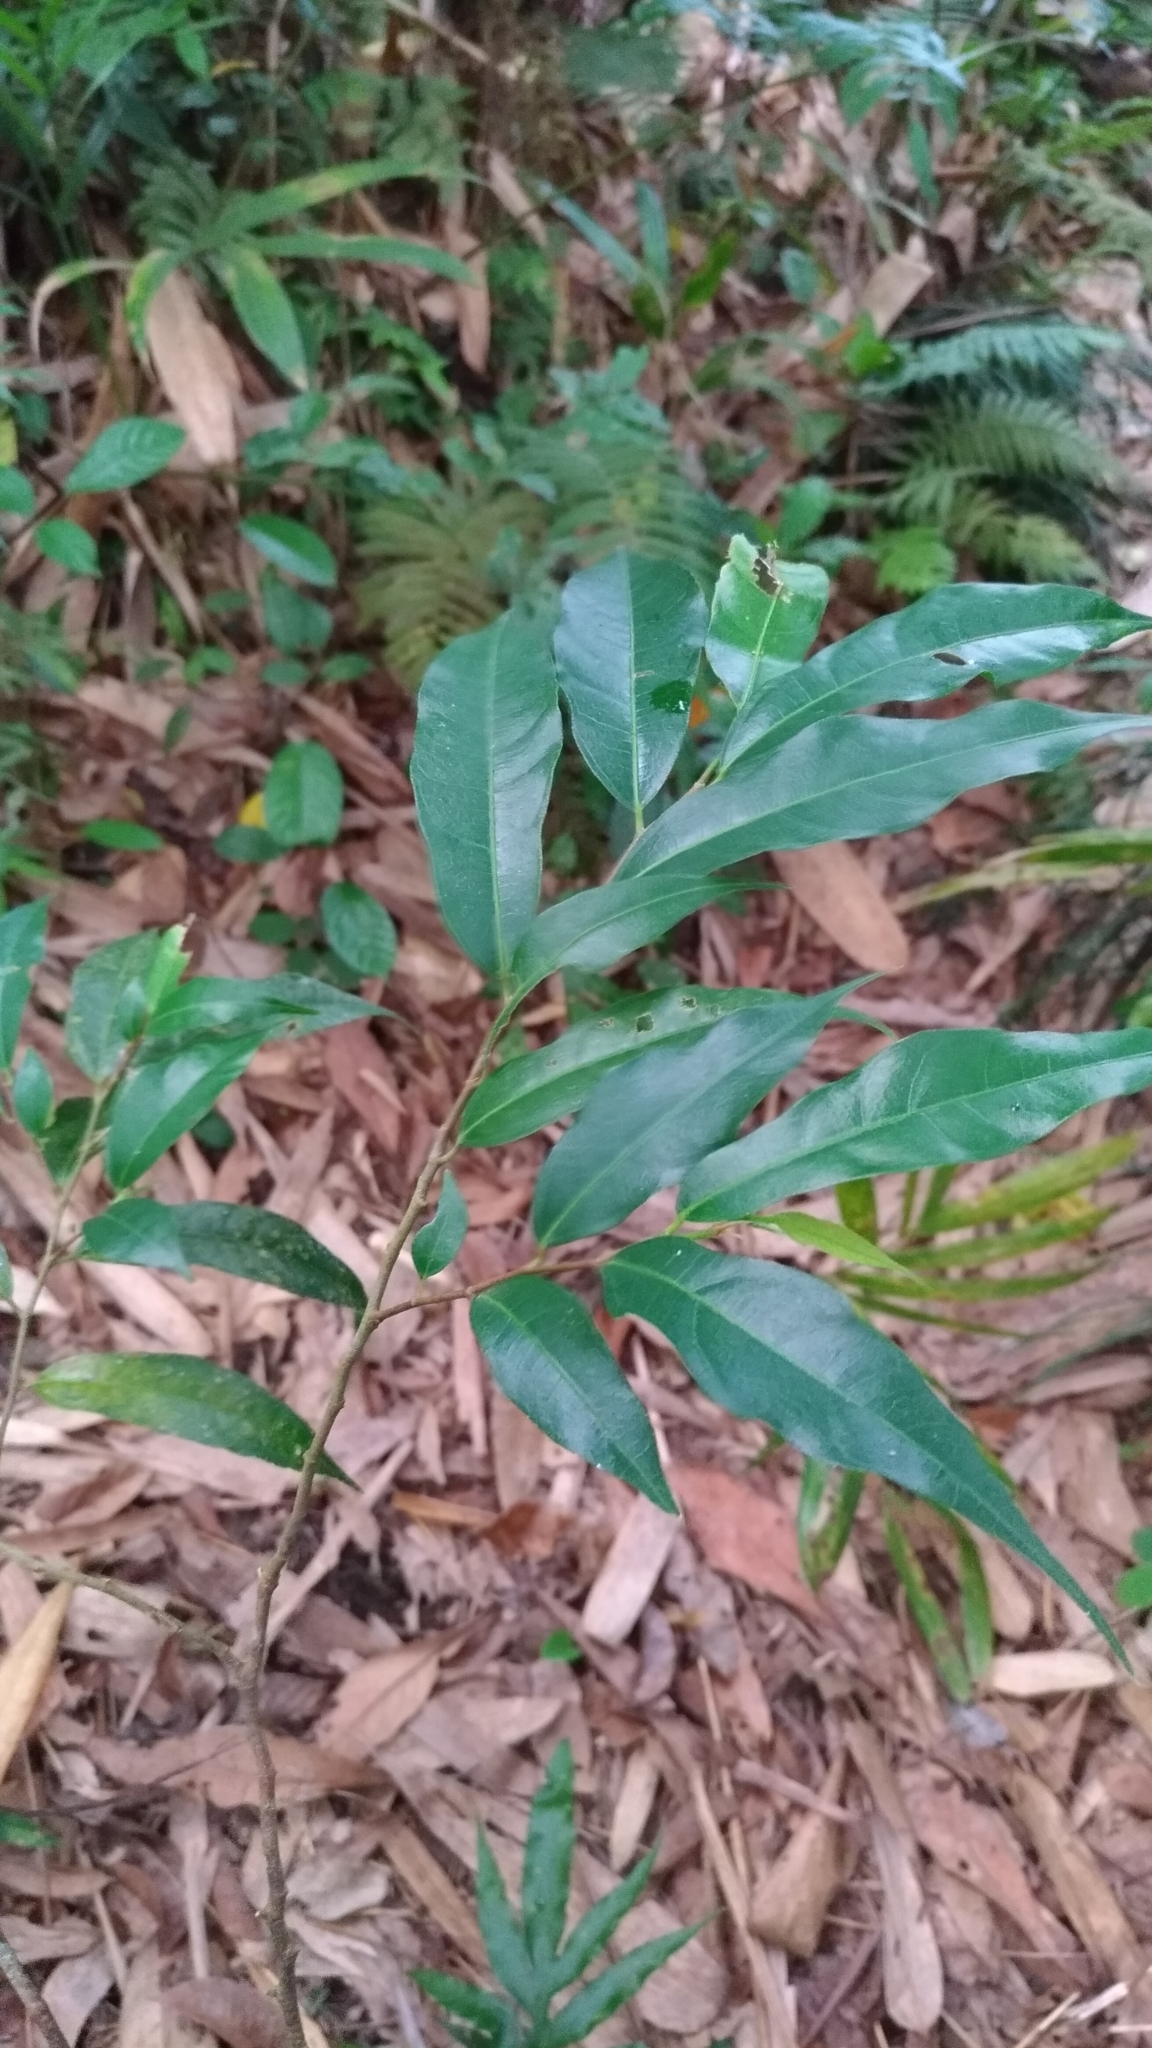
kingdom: Plantae
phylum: Tracheophyta
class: Magnoliopsida
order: Rosales
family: Moraceae
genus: Ficus
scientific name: Ficus ampelos
